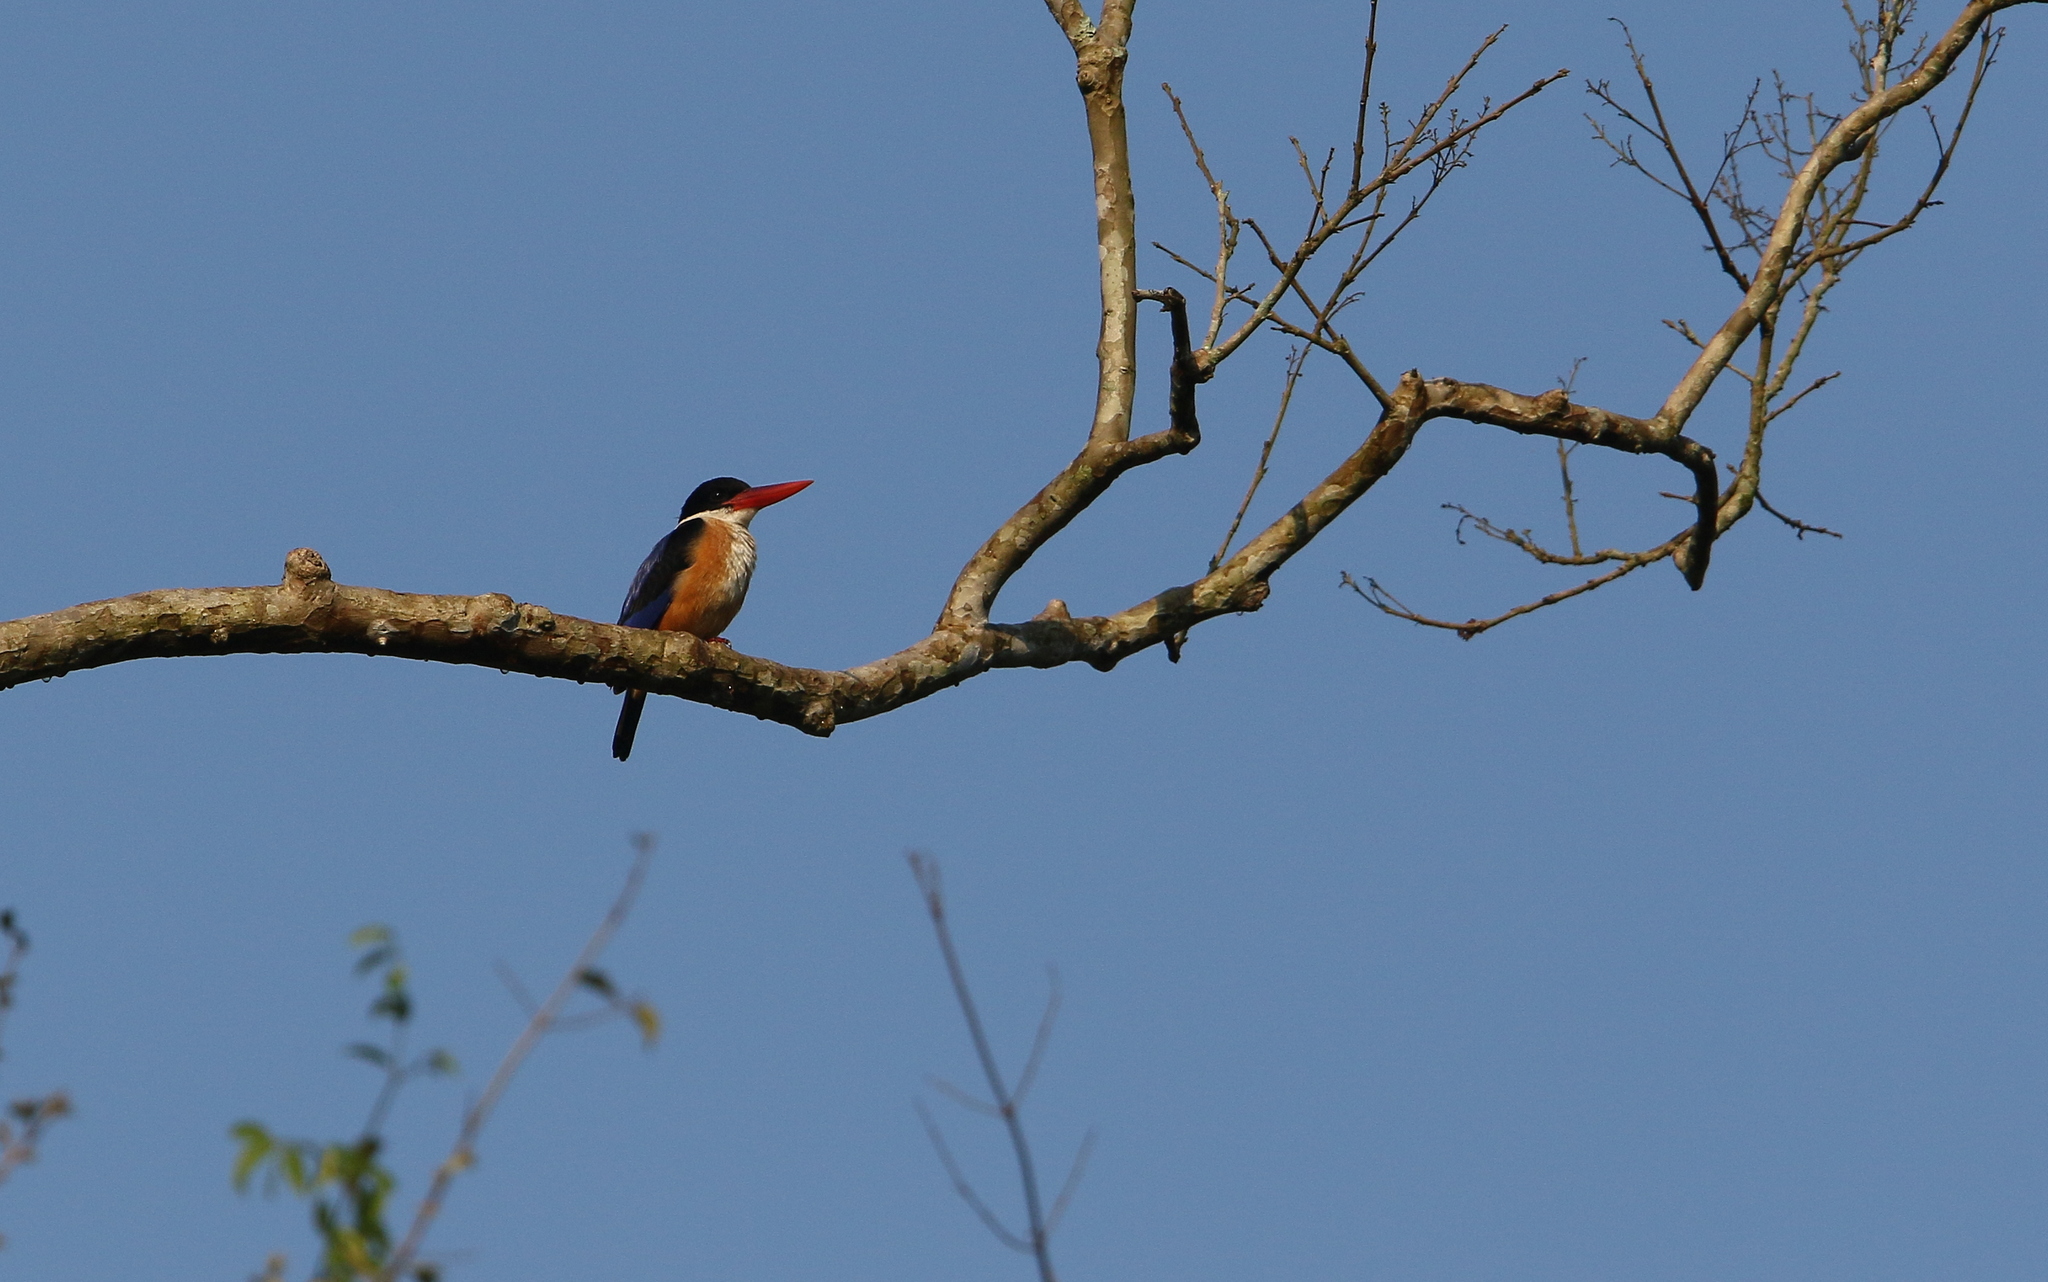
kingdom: Animalia
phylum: Chordata
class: Aves
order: Coraciiformes
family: Alcedinidae
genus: Halcyon
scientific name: Halcyon pileata
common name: Black-capped kingfisher
